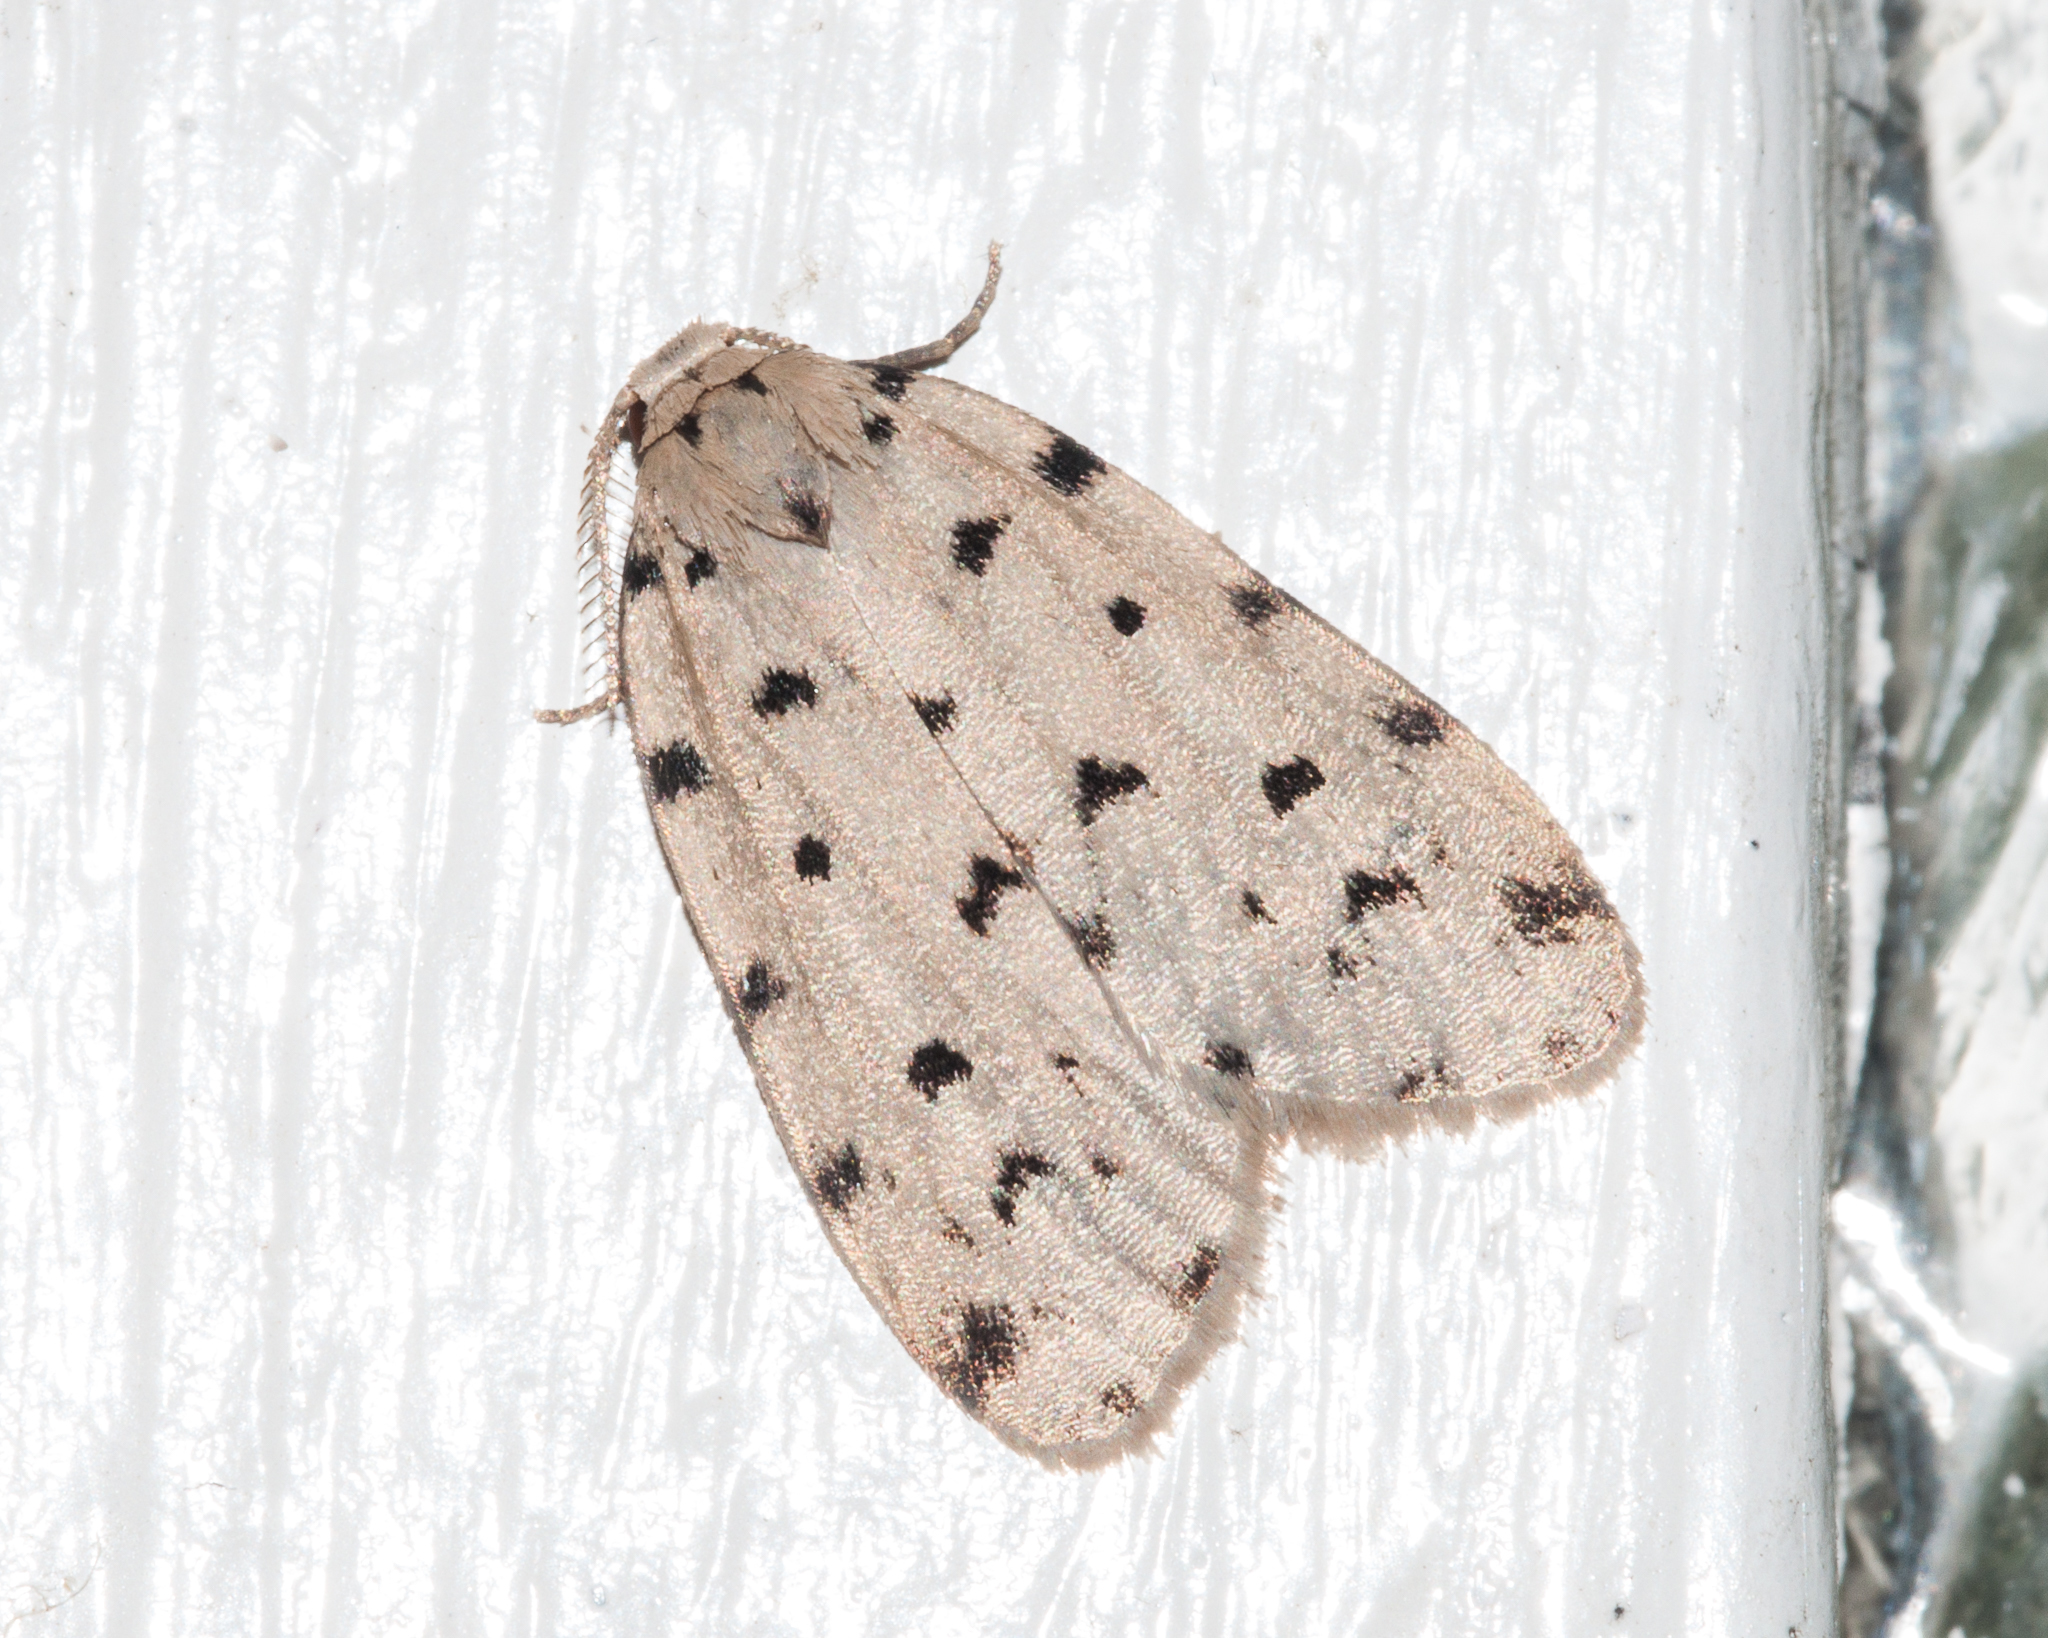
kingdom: Animalia
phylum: Arthropoda
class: Insecta
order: Lepidoptera
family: Erebidae
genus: Siccia
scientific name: Siccia caffra
